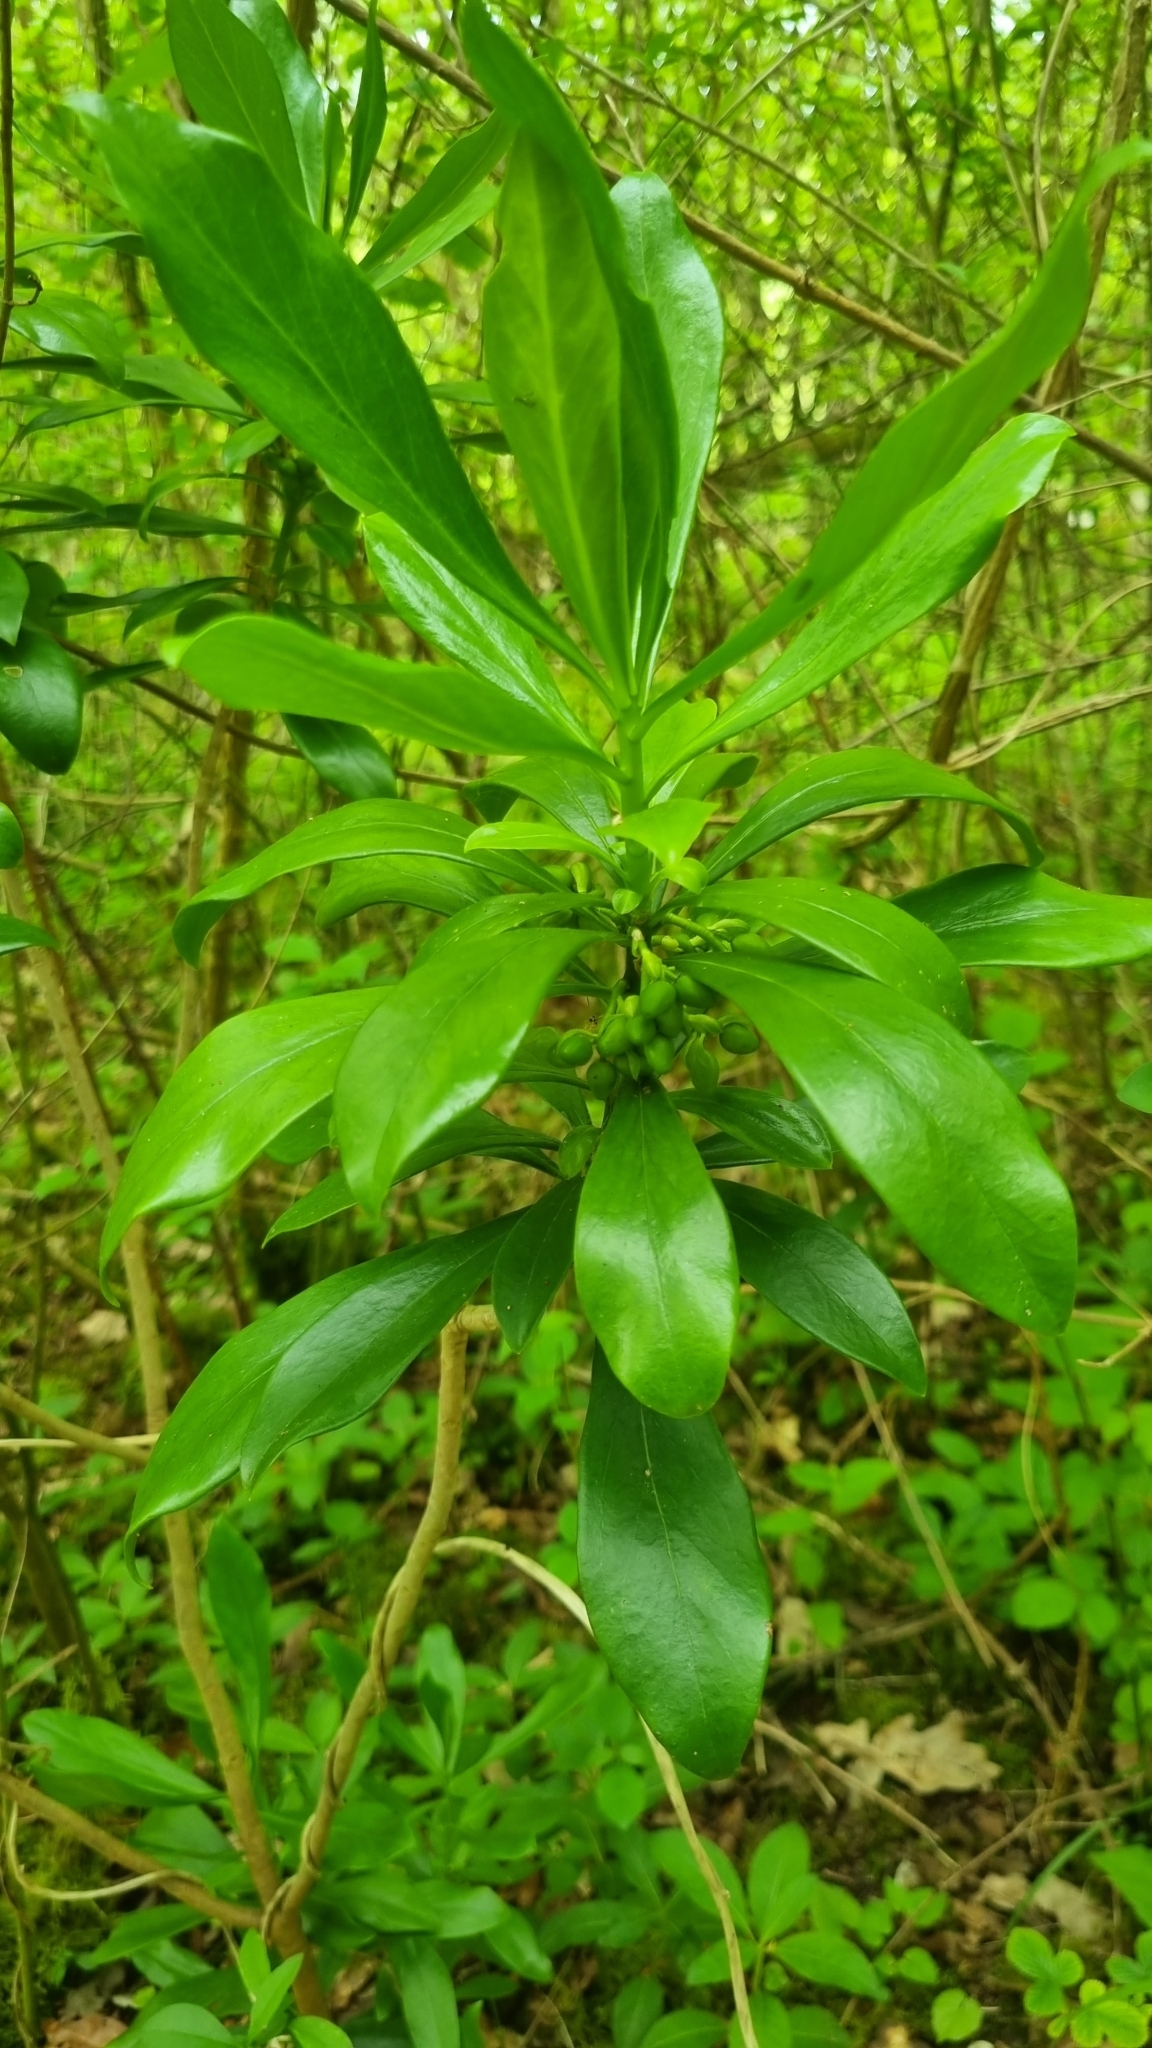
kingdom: Plantae
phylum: Tracheophyta
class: Magnoliopsida
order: Malvales
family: Thymelaeaceae
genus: Daphne
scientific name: Daphne laureola
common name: Spurge-laurel
